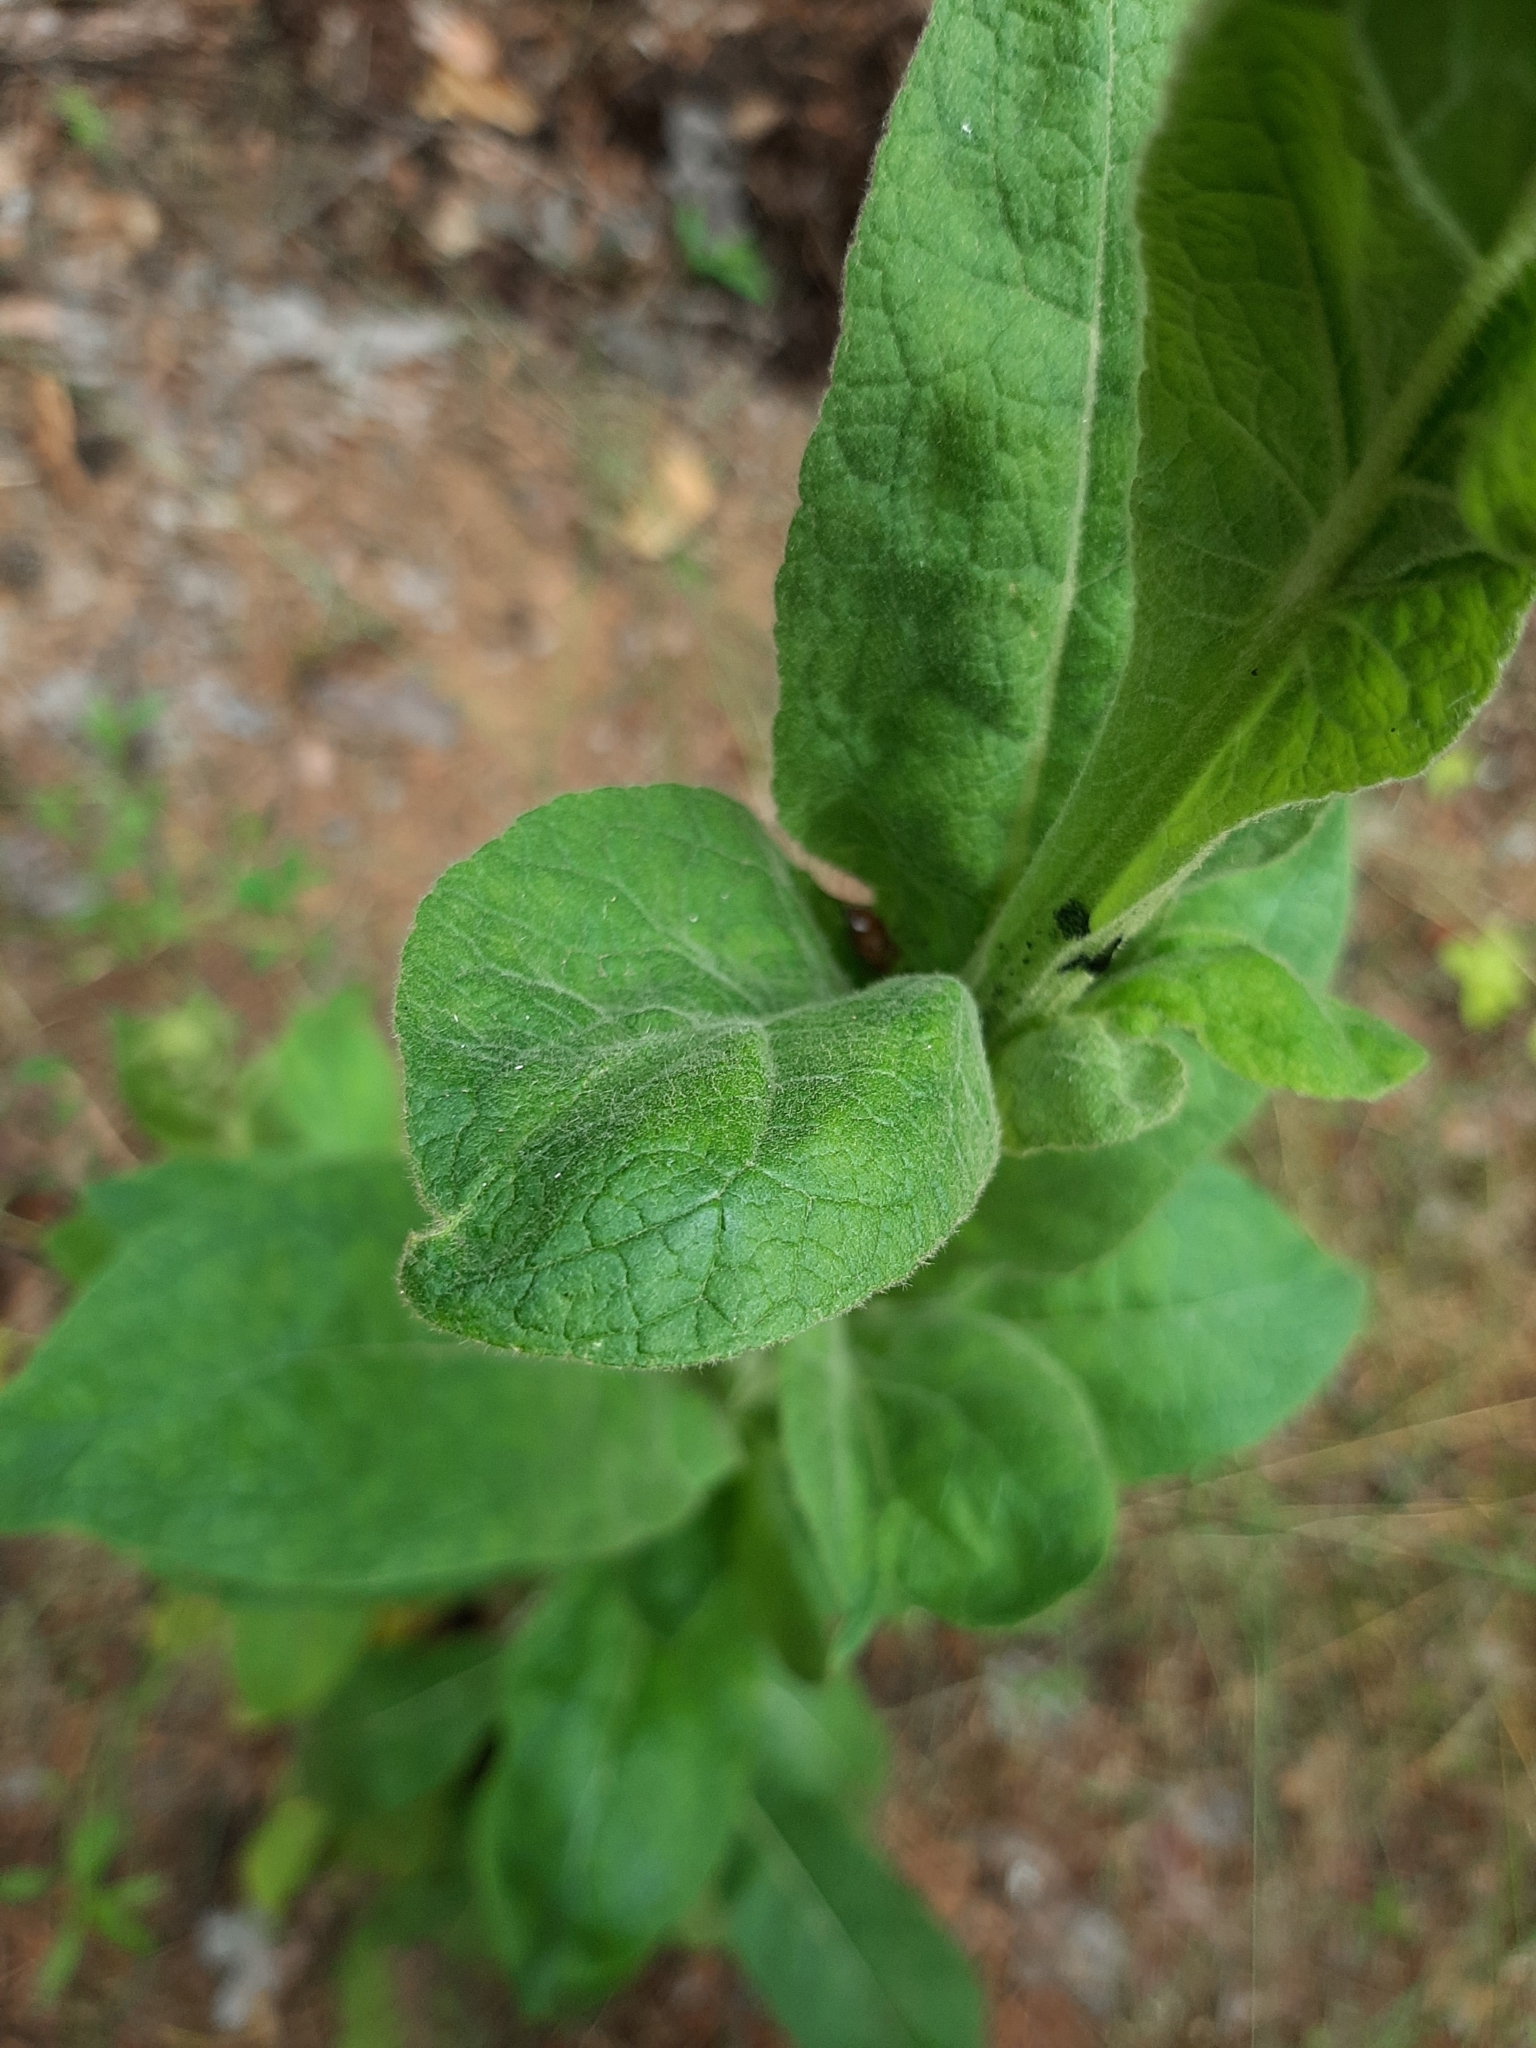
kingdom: Plantae
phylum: Tracheophyta
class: Magnoliopsida
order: Lamiales
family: Scrophulariaceae
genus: Verbascum
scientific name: Verbascum thapsus
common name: Common mullein
